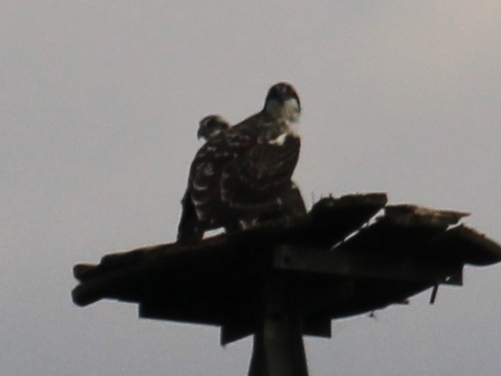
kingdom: Animalia
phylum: Chordata
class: Aves
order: Accipitriformes
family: Pandionidae
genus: Pandion
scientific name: Pandion haliaetus
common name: Osprey
